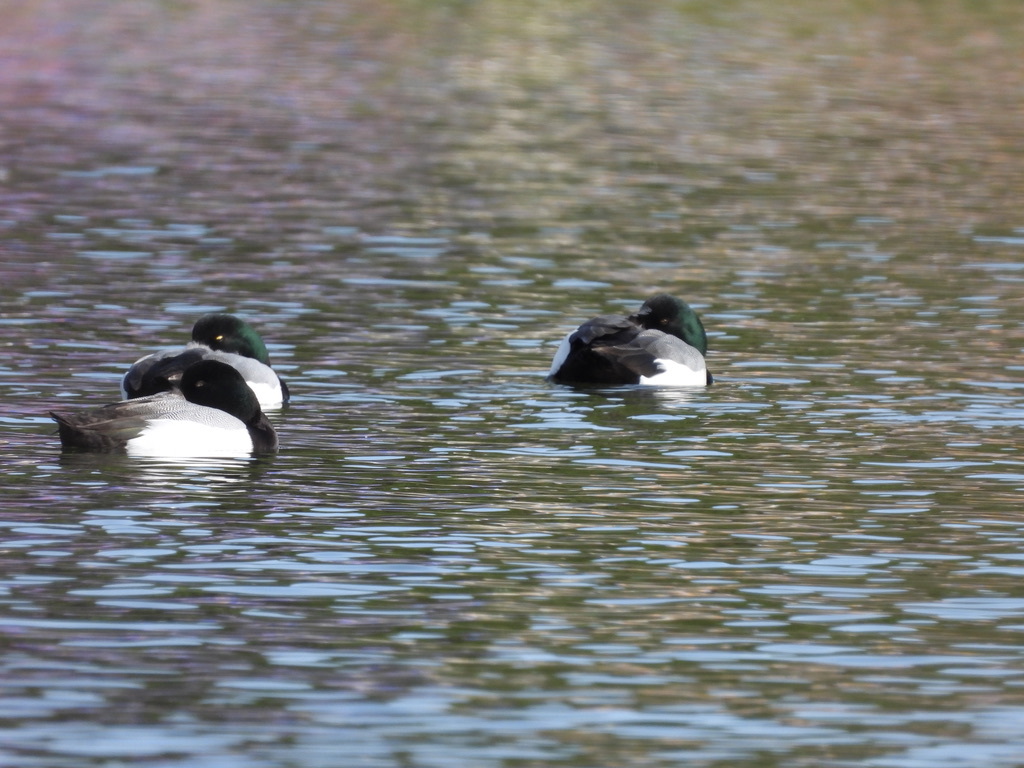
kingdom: Animalia
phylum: Chordata
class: Aves
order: Anseriformes
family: Anatidae
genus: Aythya
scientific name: Aythya marila
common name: Greater scaup
